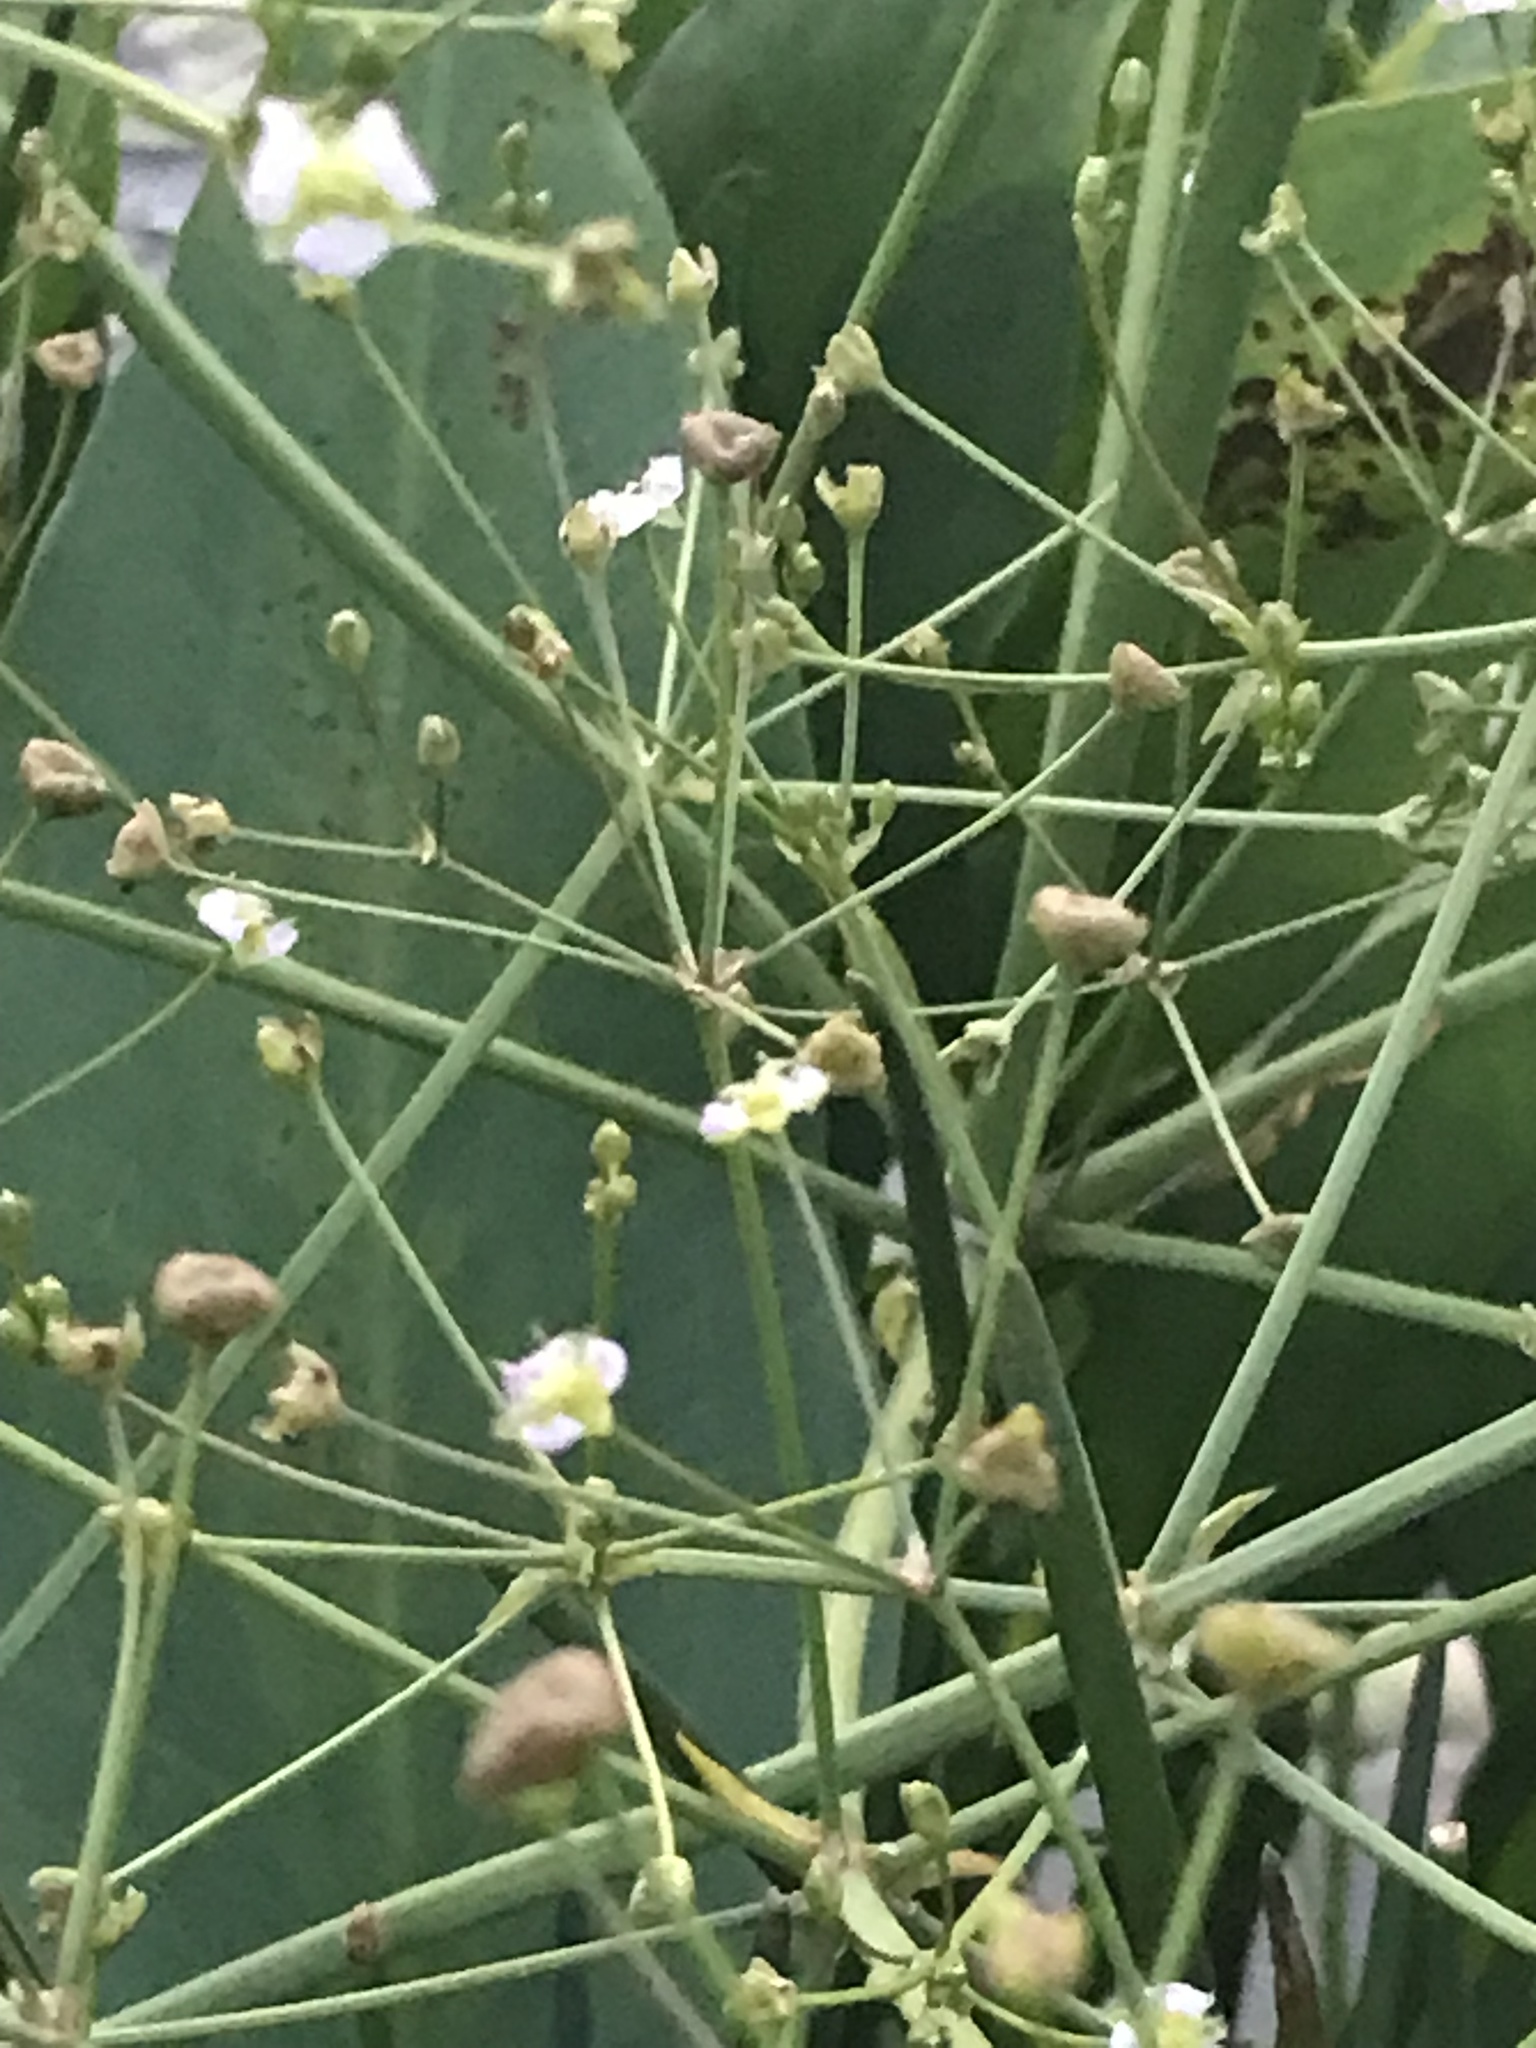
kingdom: Plantae
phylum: Tracheophyta
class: Liliopsida
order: Alismatales
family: Alismataceae
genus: Alisma
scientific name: Alisma plantago-aquatica
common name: Water-plantain
